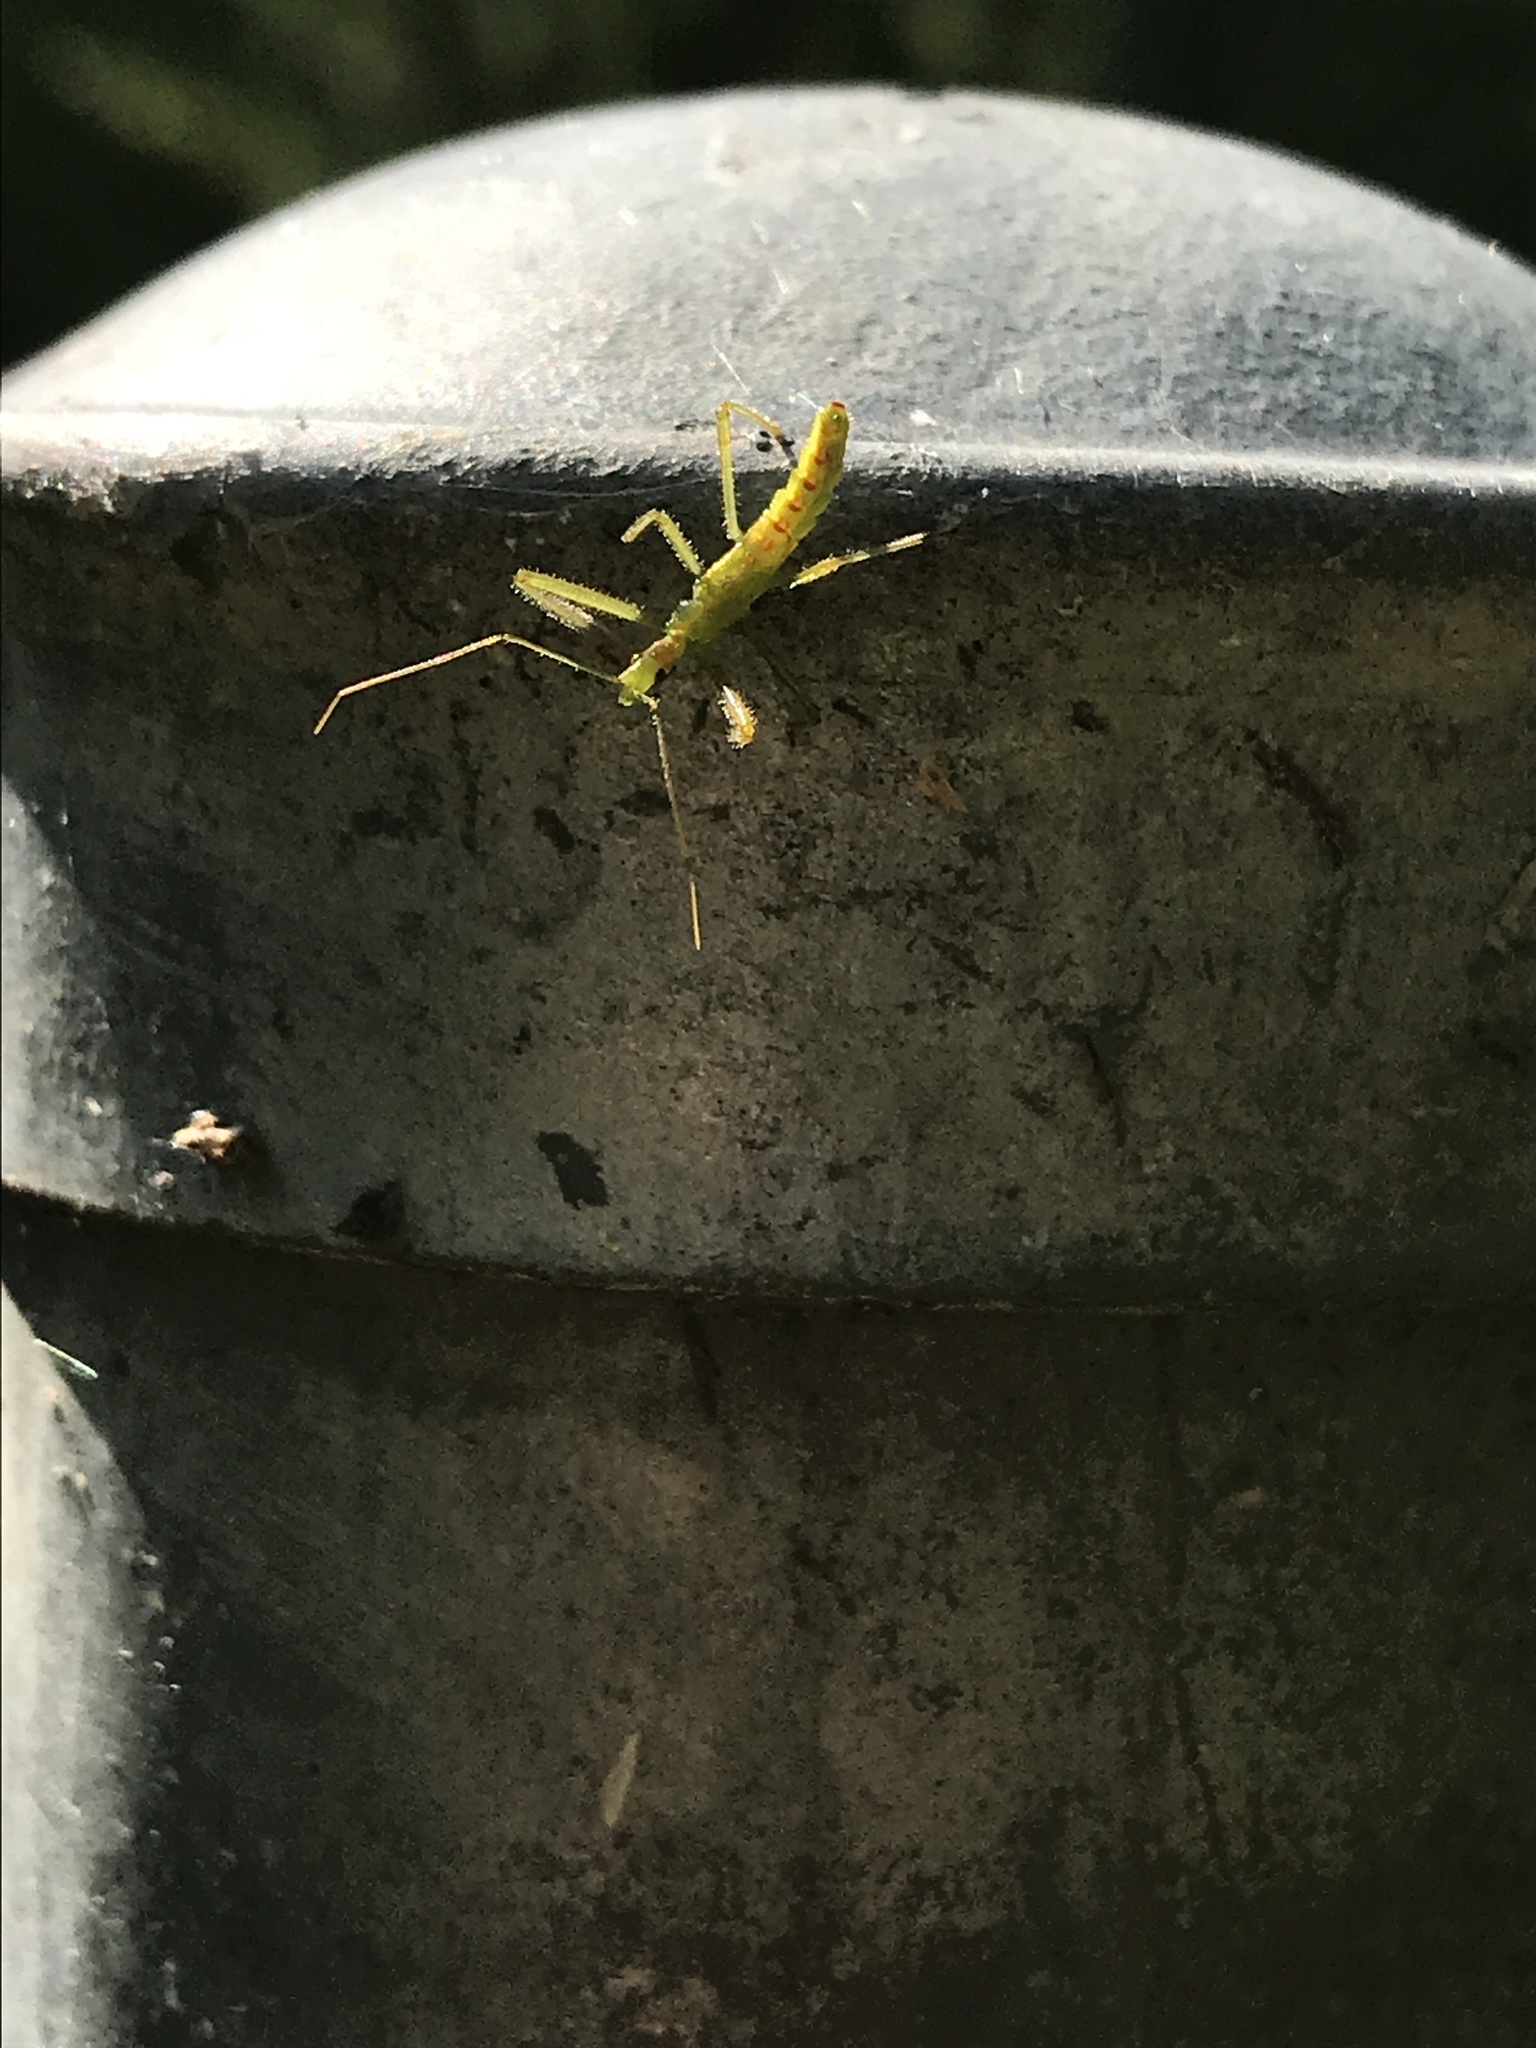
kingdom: Animalia
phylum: Arthropoda
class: Insecta
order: Hemiptera
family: Reduviidae
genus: Zelus
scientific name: Zelus luridus
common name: Pale green assassin bug
